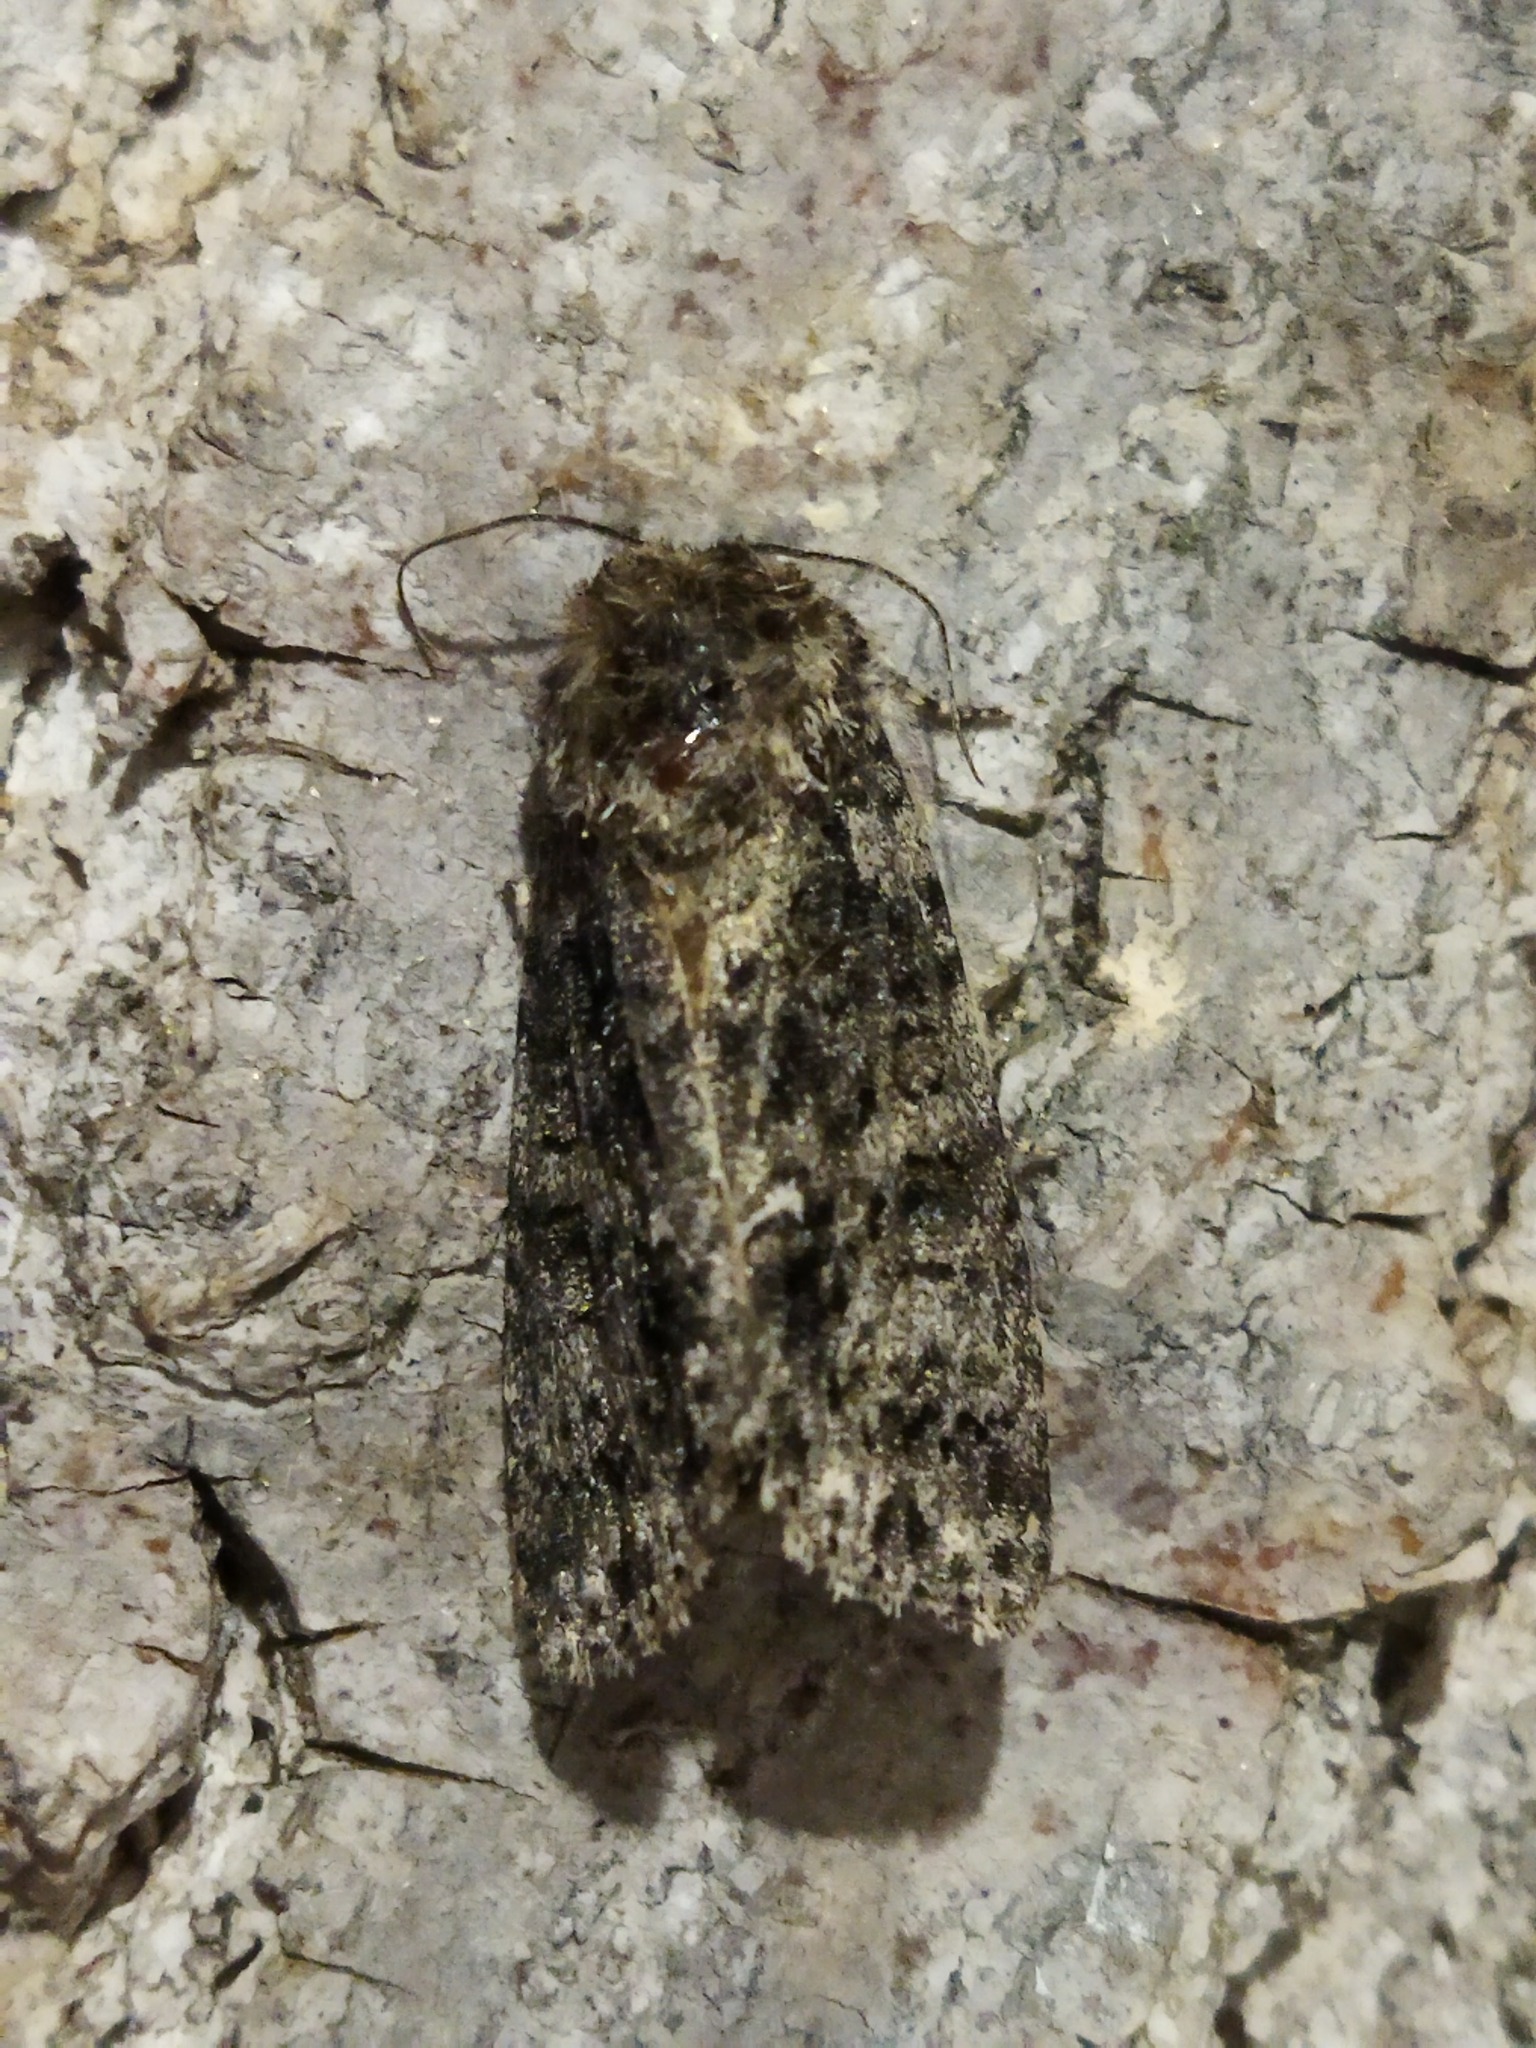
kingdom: Animalia
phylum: Arthropoda
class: Insecta
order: Lepidoptera
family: Noctuidae
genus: Acronicta
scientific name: Acronicta rumicis
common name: Knot grass
